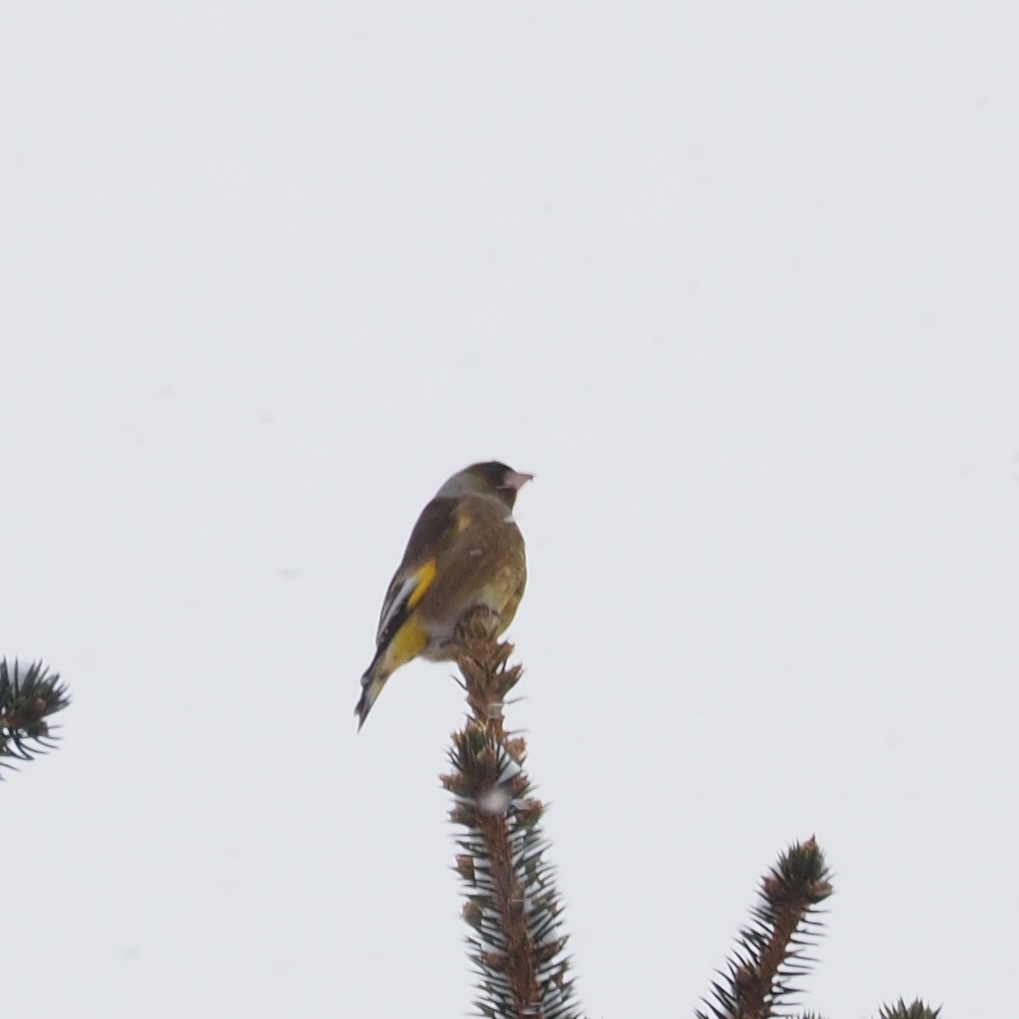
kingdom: Plantae
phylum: Tracheophyta
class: Liliopsida
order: Poales
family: Poaceae
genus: Chloris
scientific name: Chloris sinica
